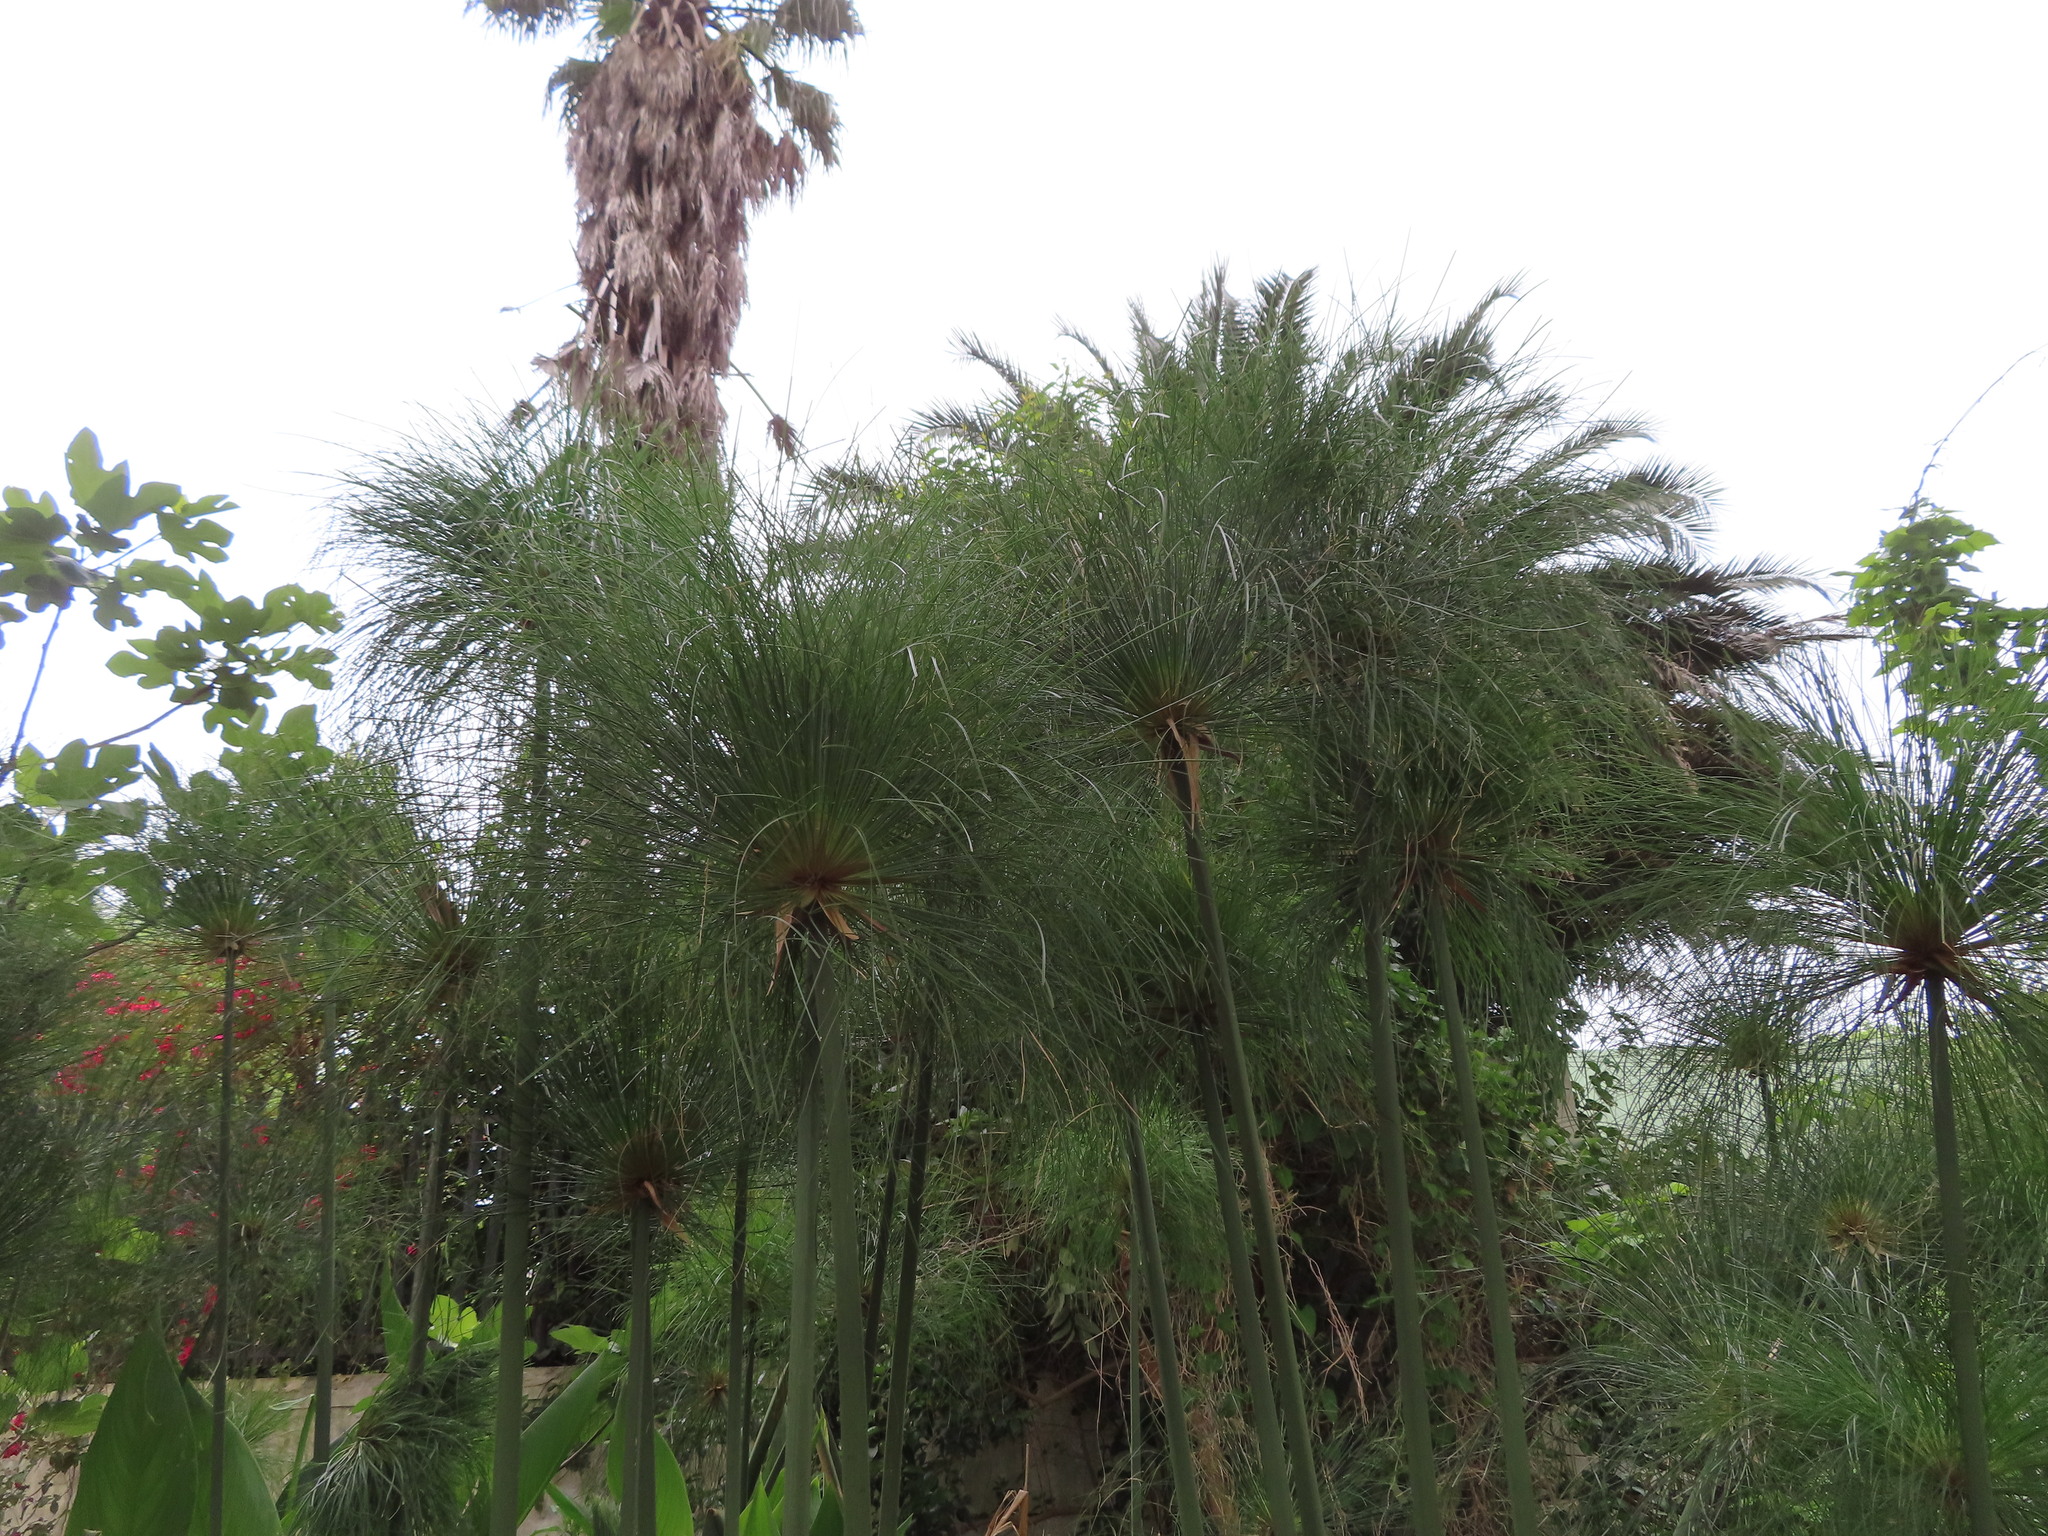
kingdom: Plantae
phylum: Tracheophyta
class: Liliopsida
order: Poales
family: Cyperaceae
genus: Cyperus
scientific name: Cyperus papyrus
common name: Papyrus
